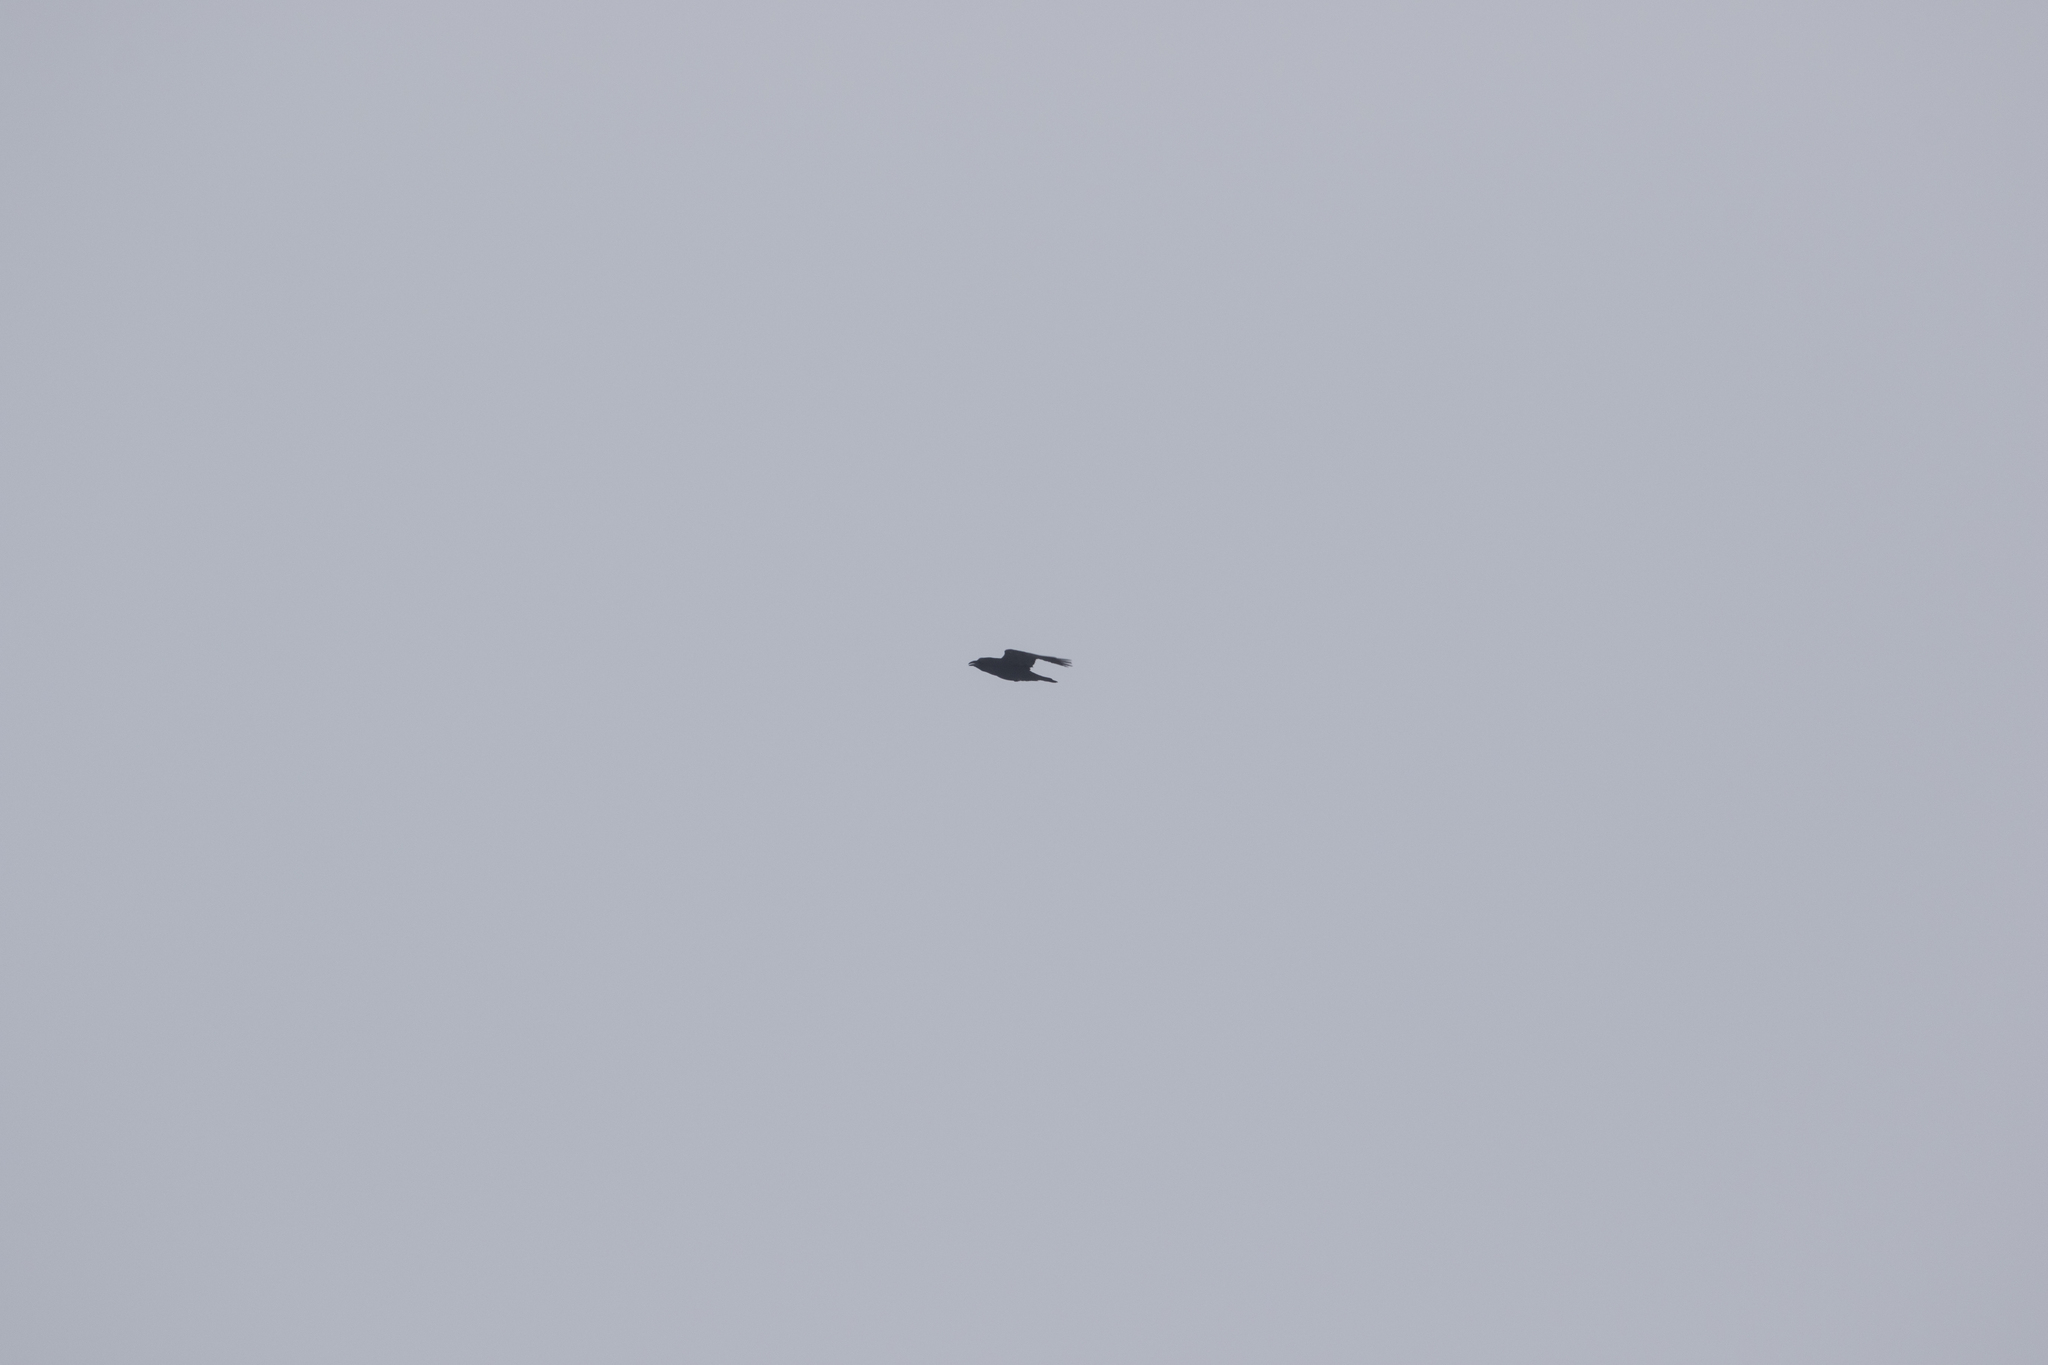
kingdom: Animalia
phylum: Chordata
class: Aves
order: Passeriformes
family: Corvidae
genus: Corvus
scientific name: Corvus corax
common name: Common raven
